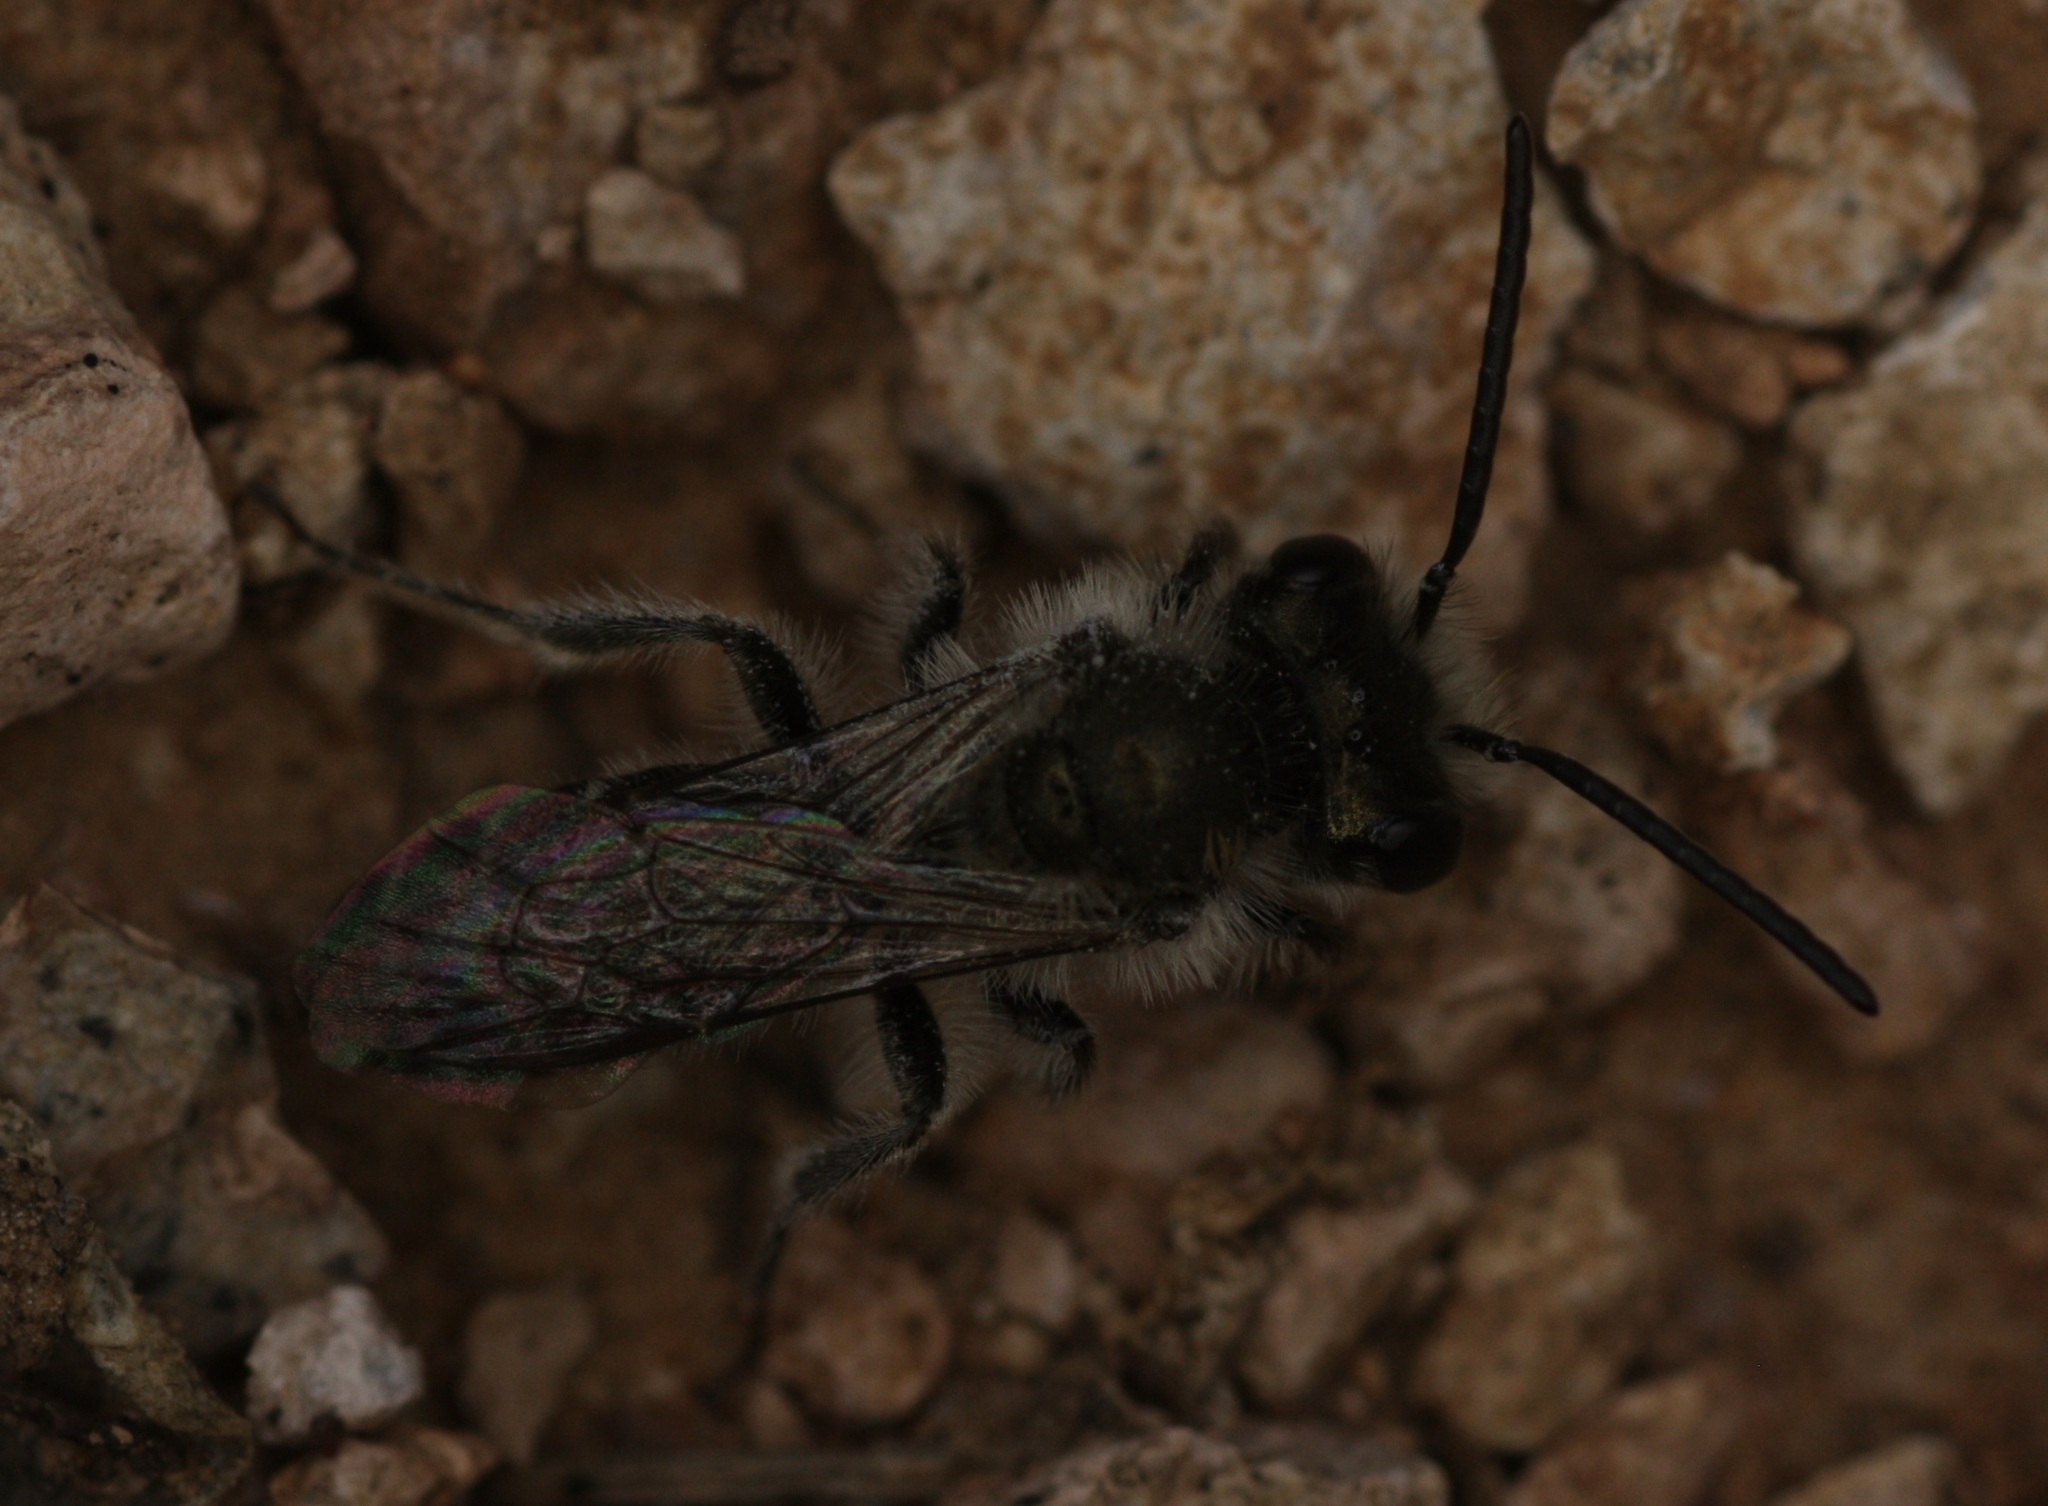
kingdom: Animalia
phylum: Arthropoda
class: Insecta
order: Hymenoptera
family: Andrenidae
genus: Andrena
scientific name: Andrena
